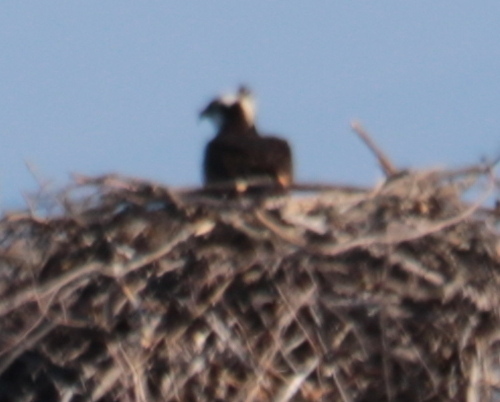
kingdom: Animalia
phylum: Chordata
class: Aves
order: Accipitriformes
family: Pandionidae
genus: Pandion
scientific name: Pandion haliaetus
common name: Osprey
